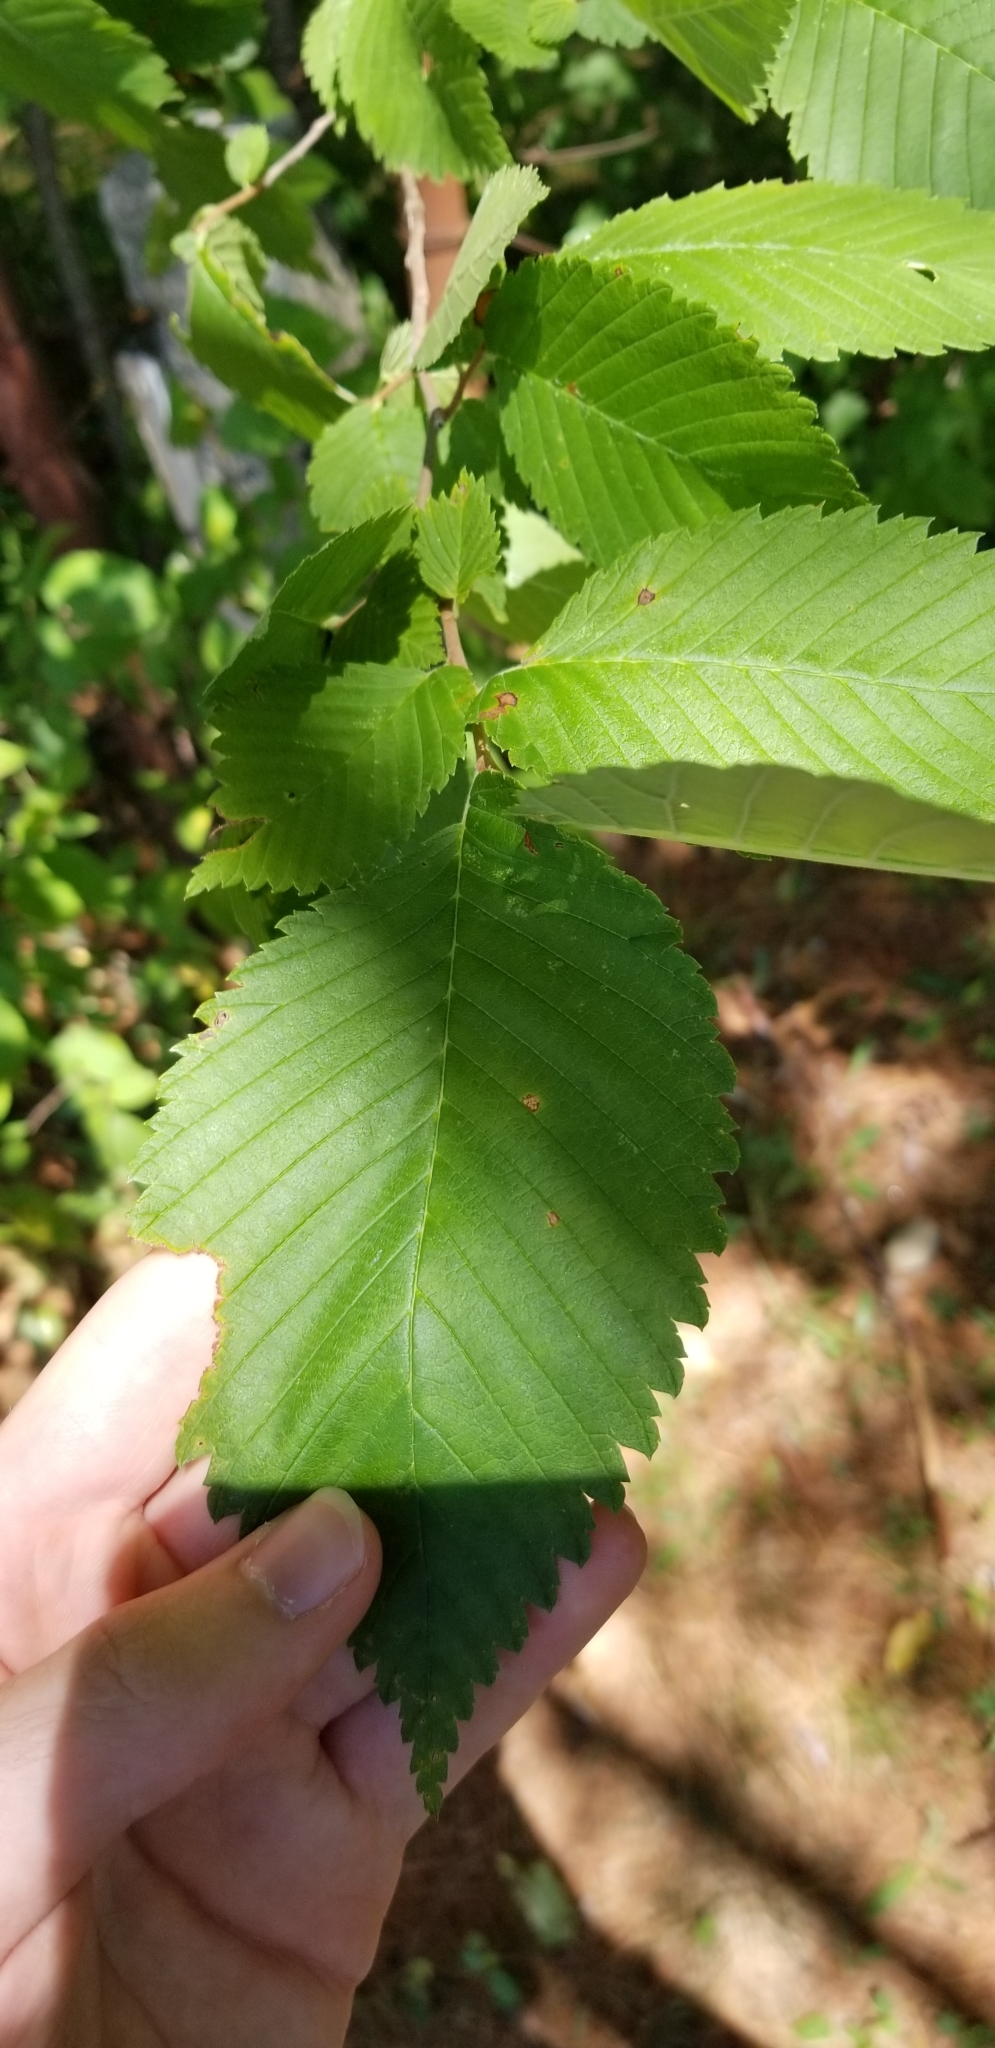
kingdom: Plantae
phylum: Tracheophyta
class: Magnoliopsida
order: Rosales
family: Ulmaceae
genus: Ulmus
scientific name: Ulmus americana
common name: American elm
